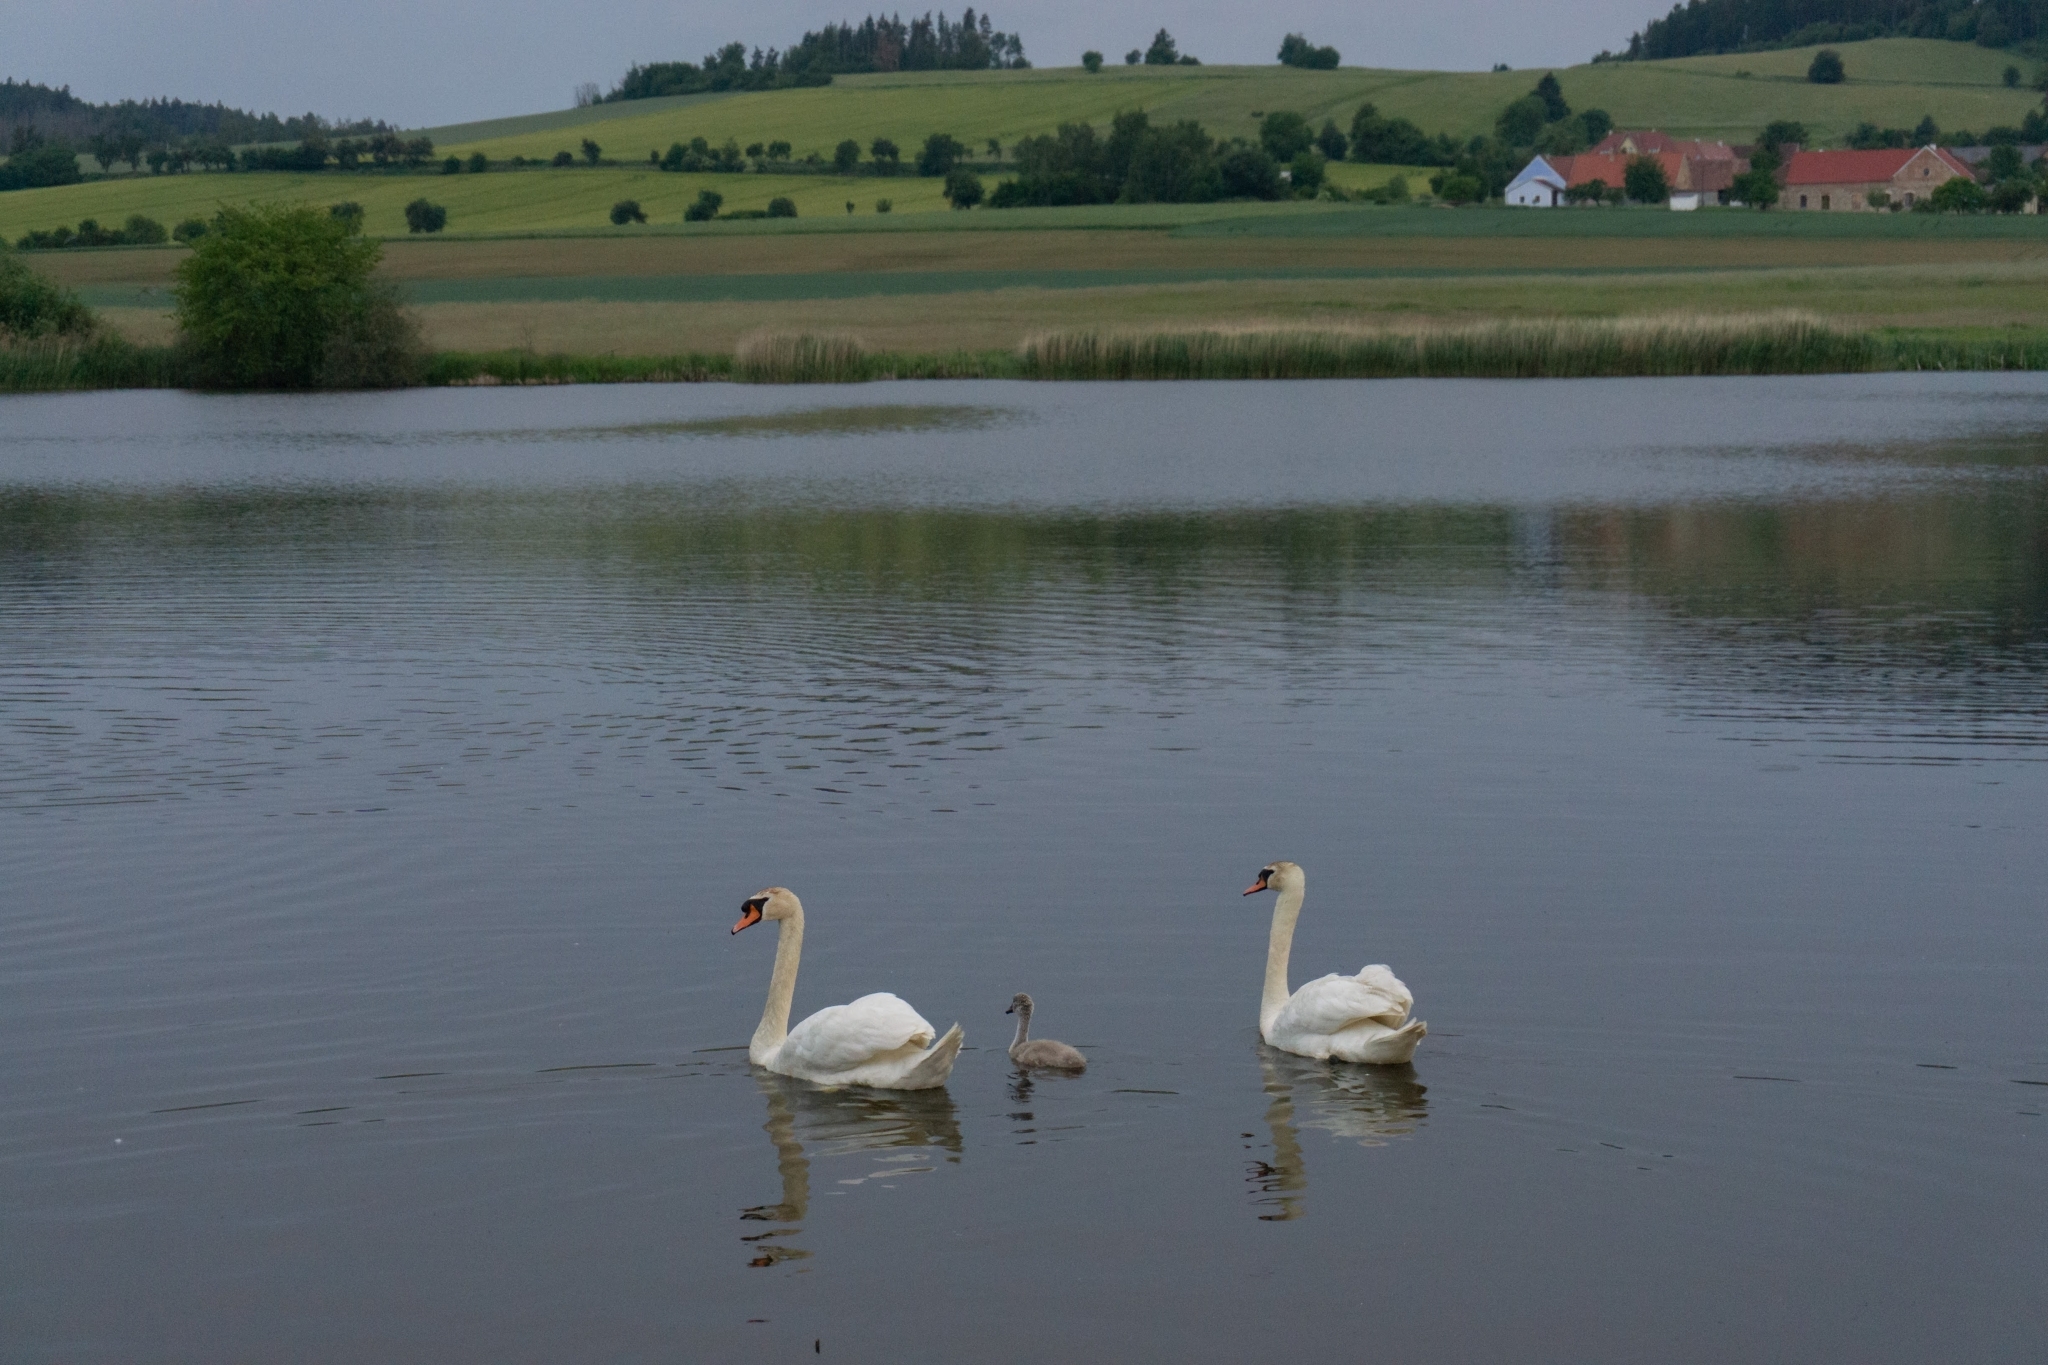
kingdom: Animalia
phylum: Chordata
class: Aves
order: Anseriformes
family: Anatidae
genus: Cygnus
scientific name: Cygnus olor
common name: Mute swan
